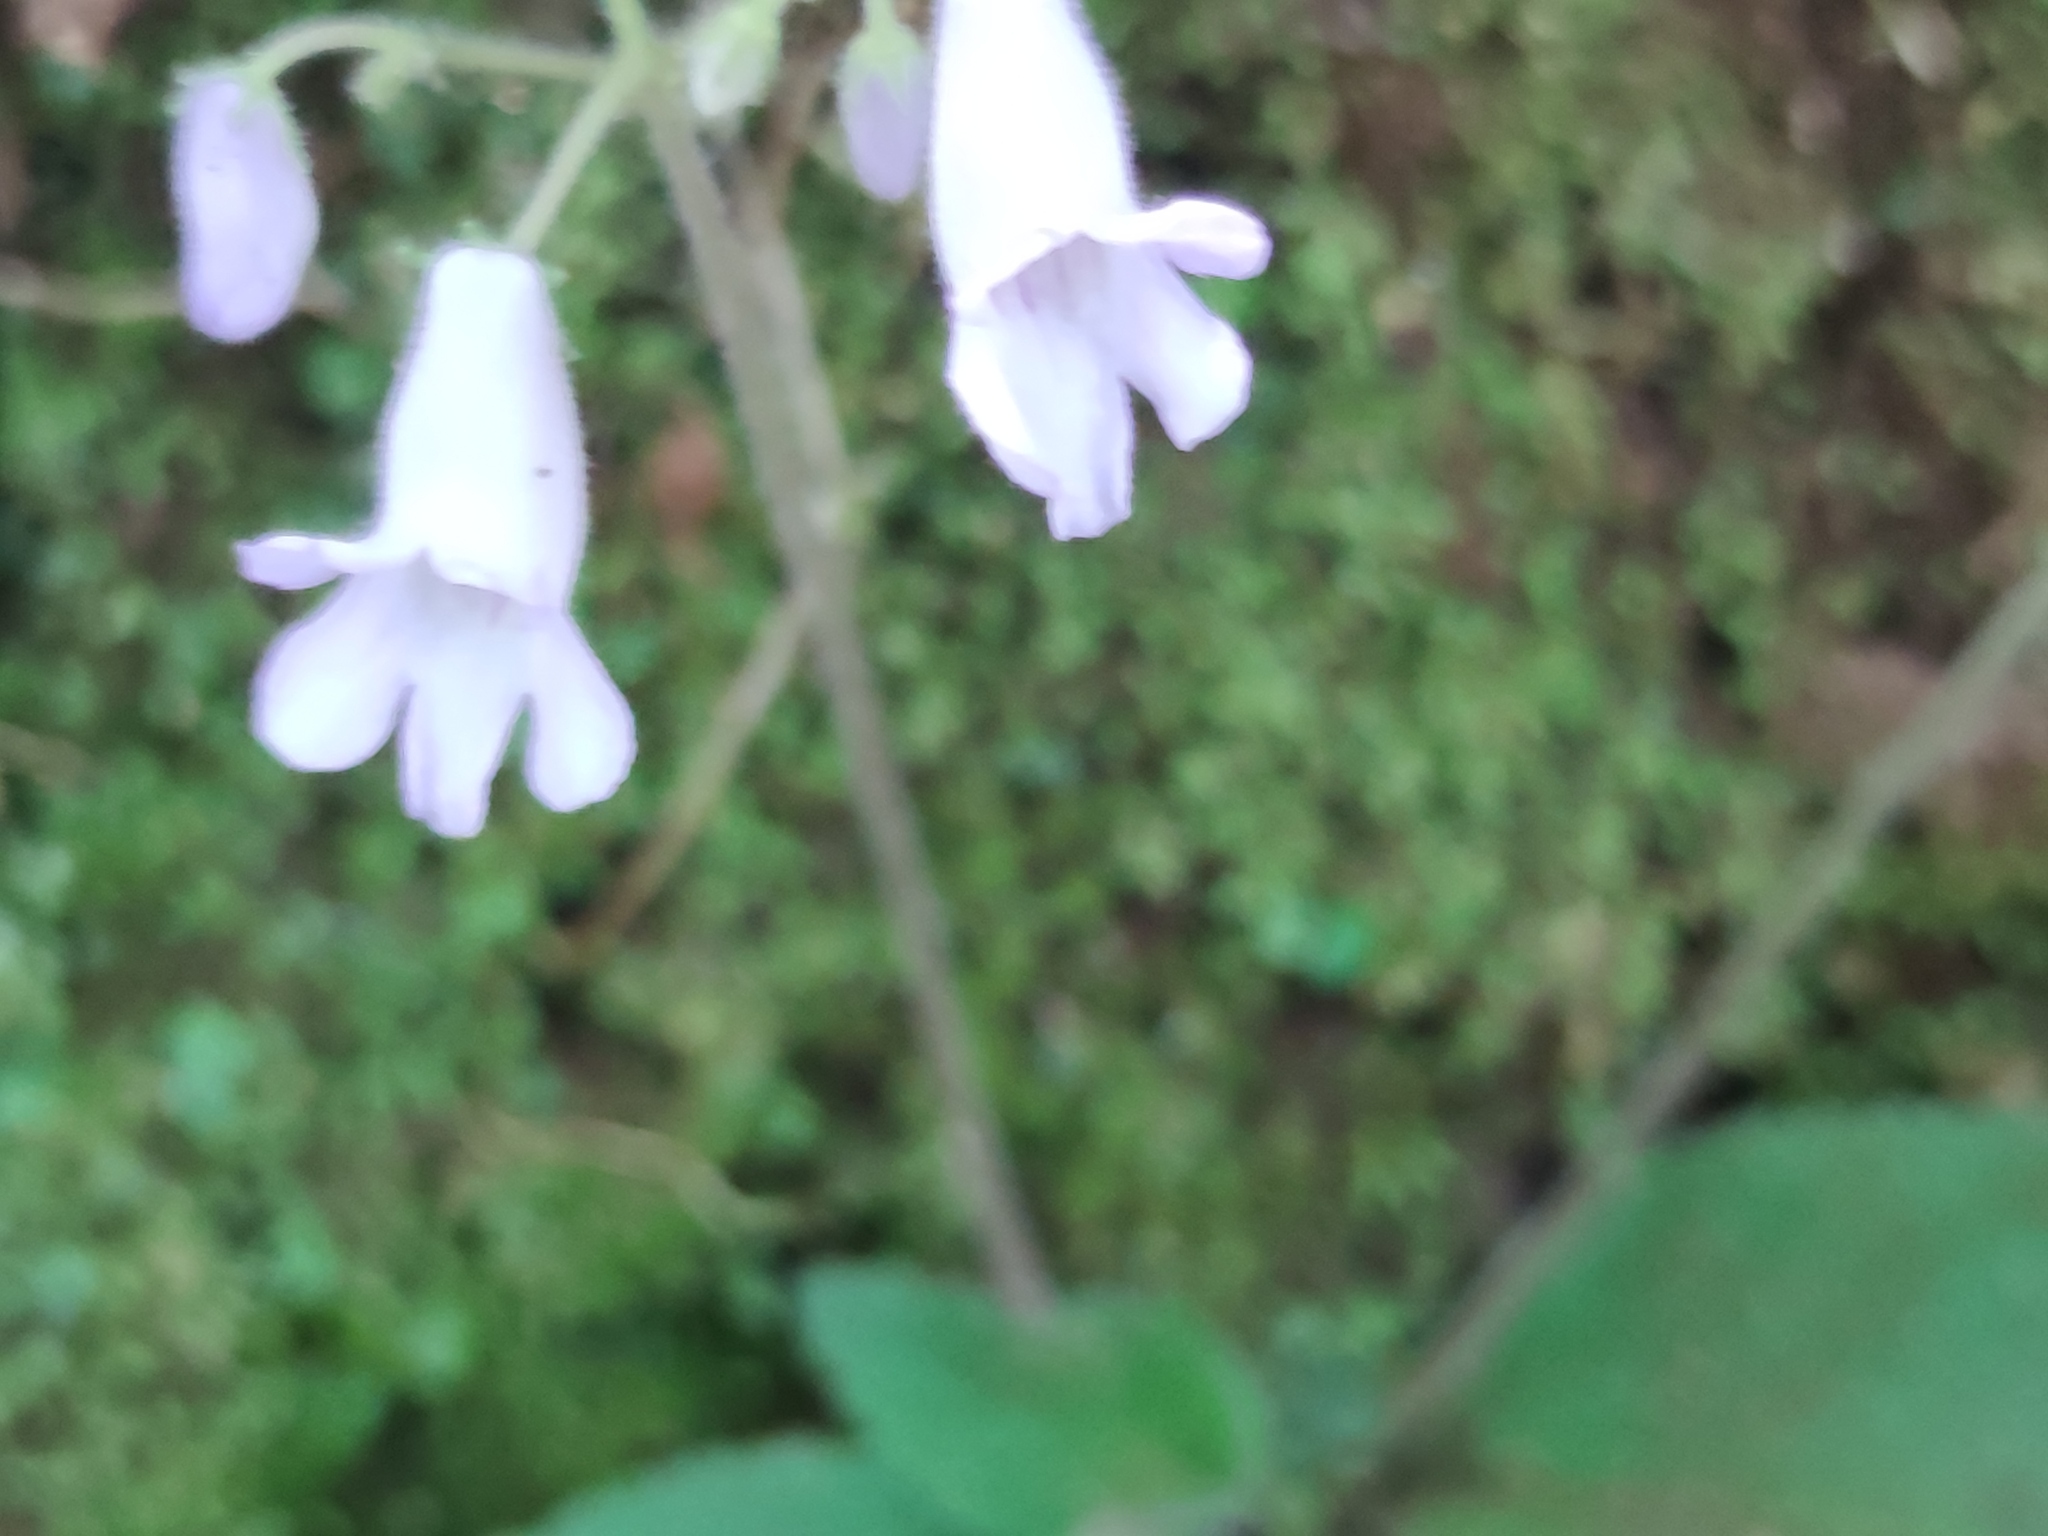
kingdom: Plantae
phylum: Tracheophyta
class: Magnoliopsida
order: Lamiales
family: Gesneriaceae
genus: Streptocarpus
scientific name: Streptocarpus montanus
